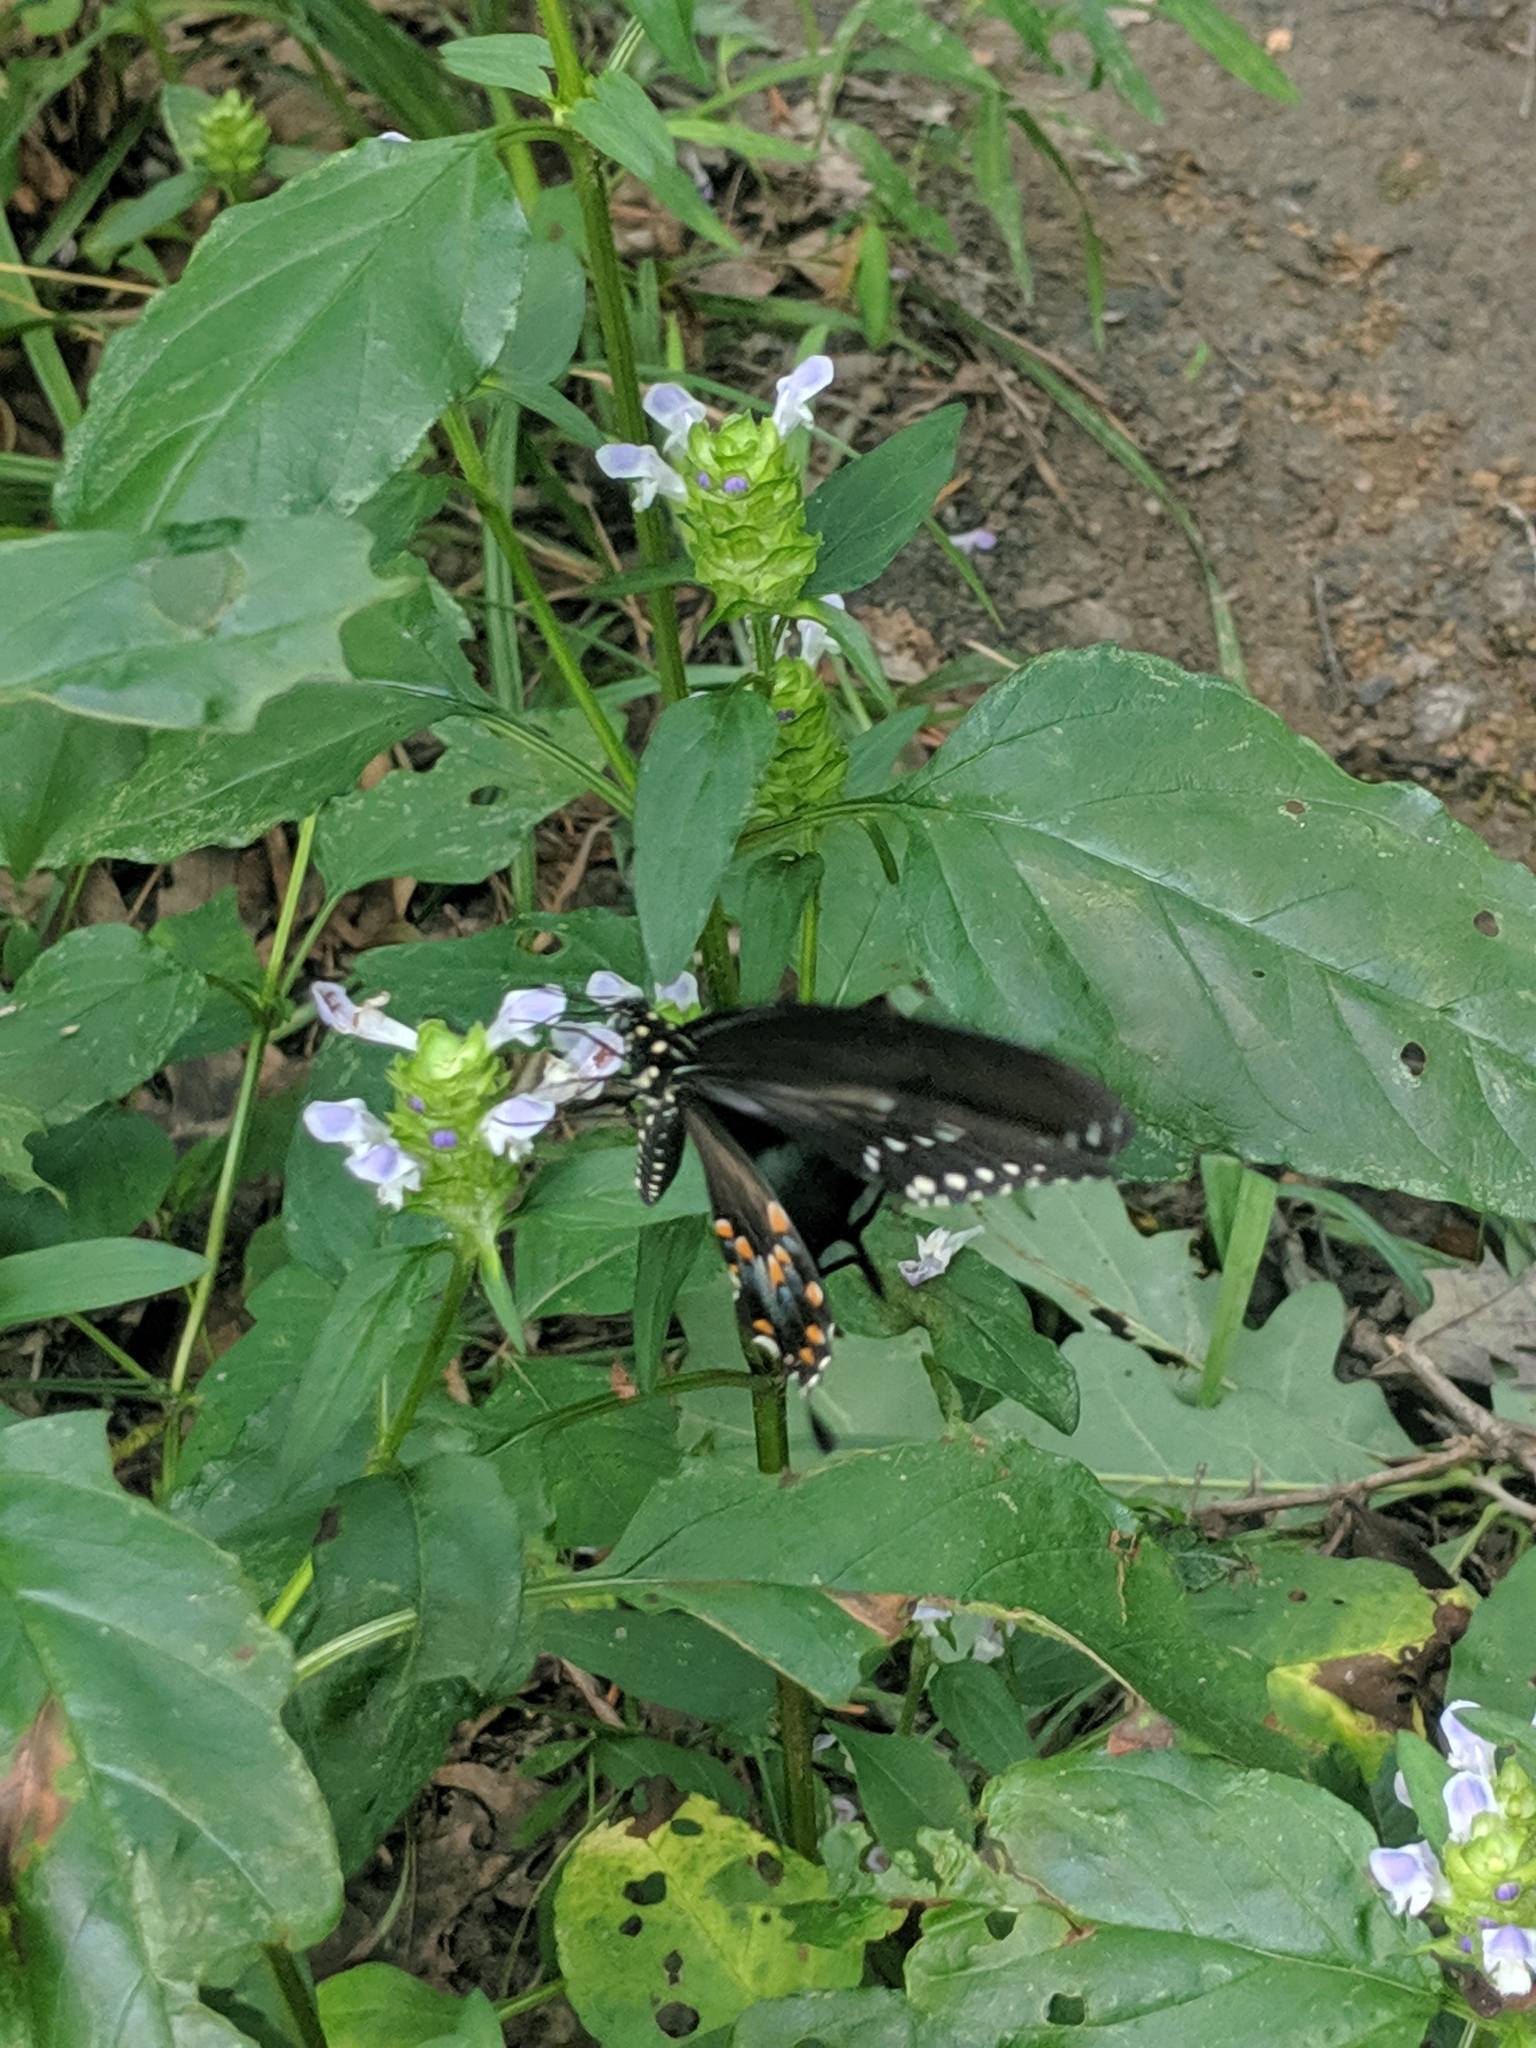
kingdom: Animalia
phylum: Arthropoda
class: Insecta
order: Lepidoptera
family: Papilionidae
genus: Papilio
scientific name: Papilio troilus
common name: Spicebush swallowtail
